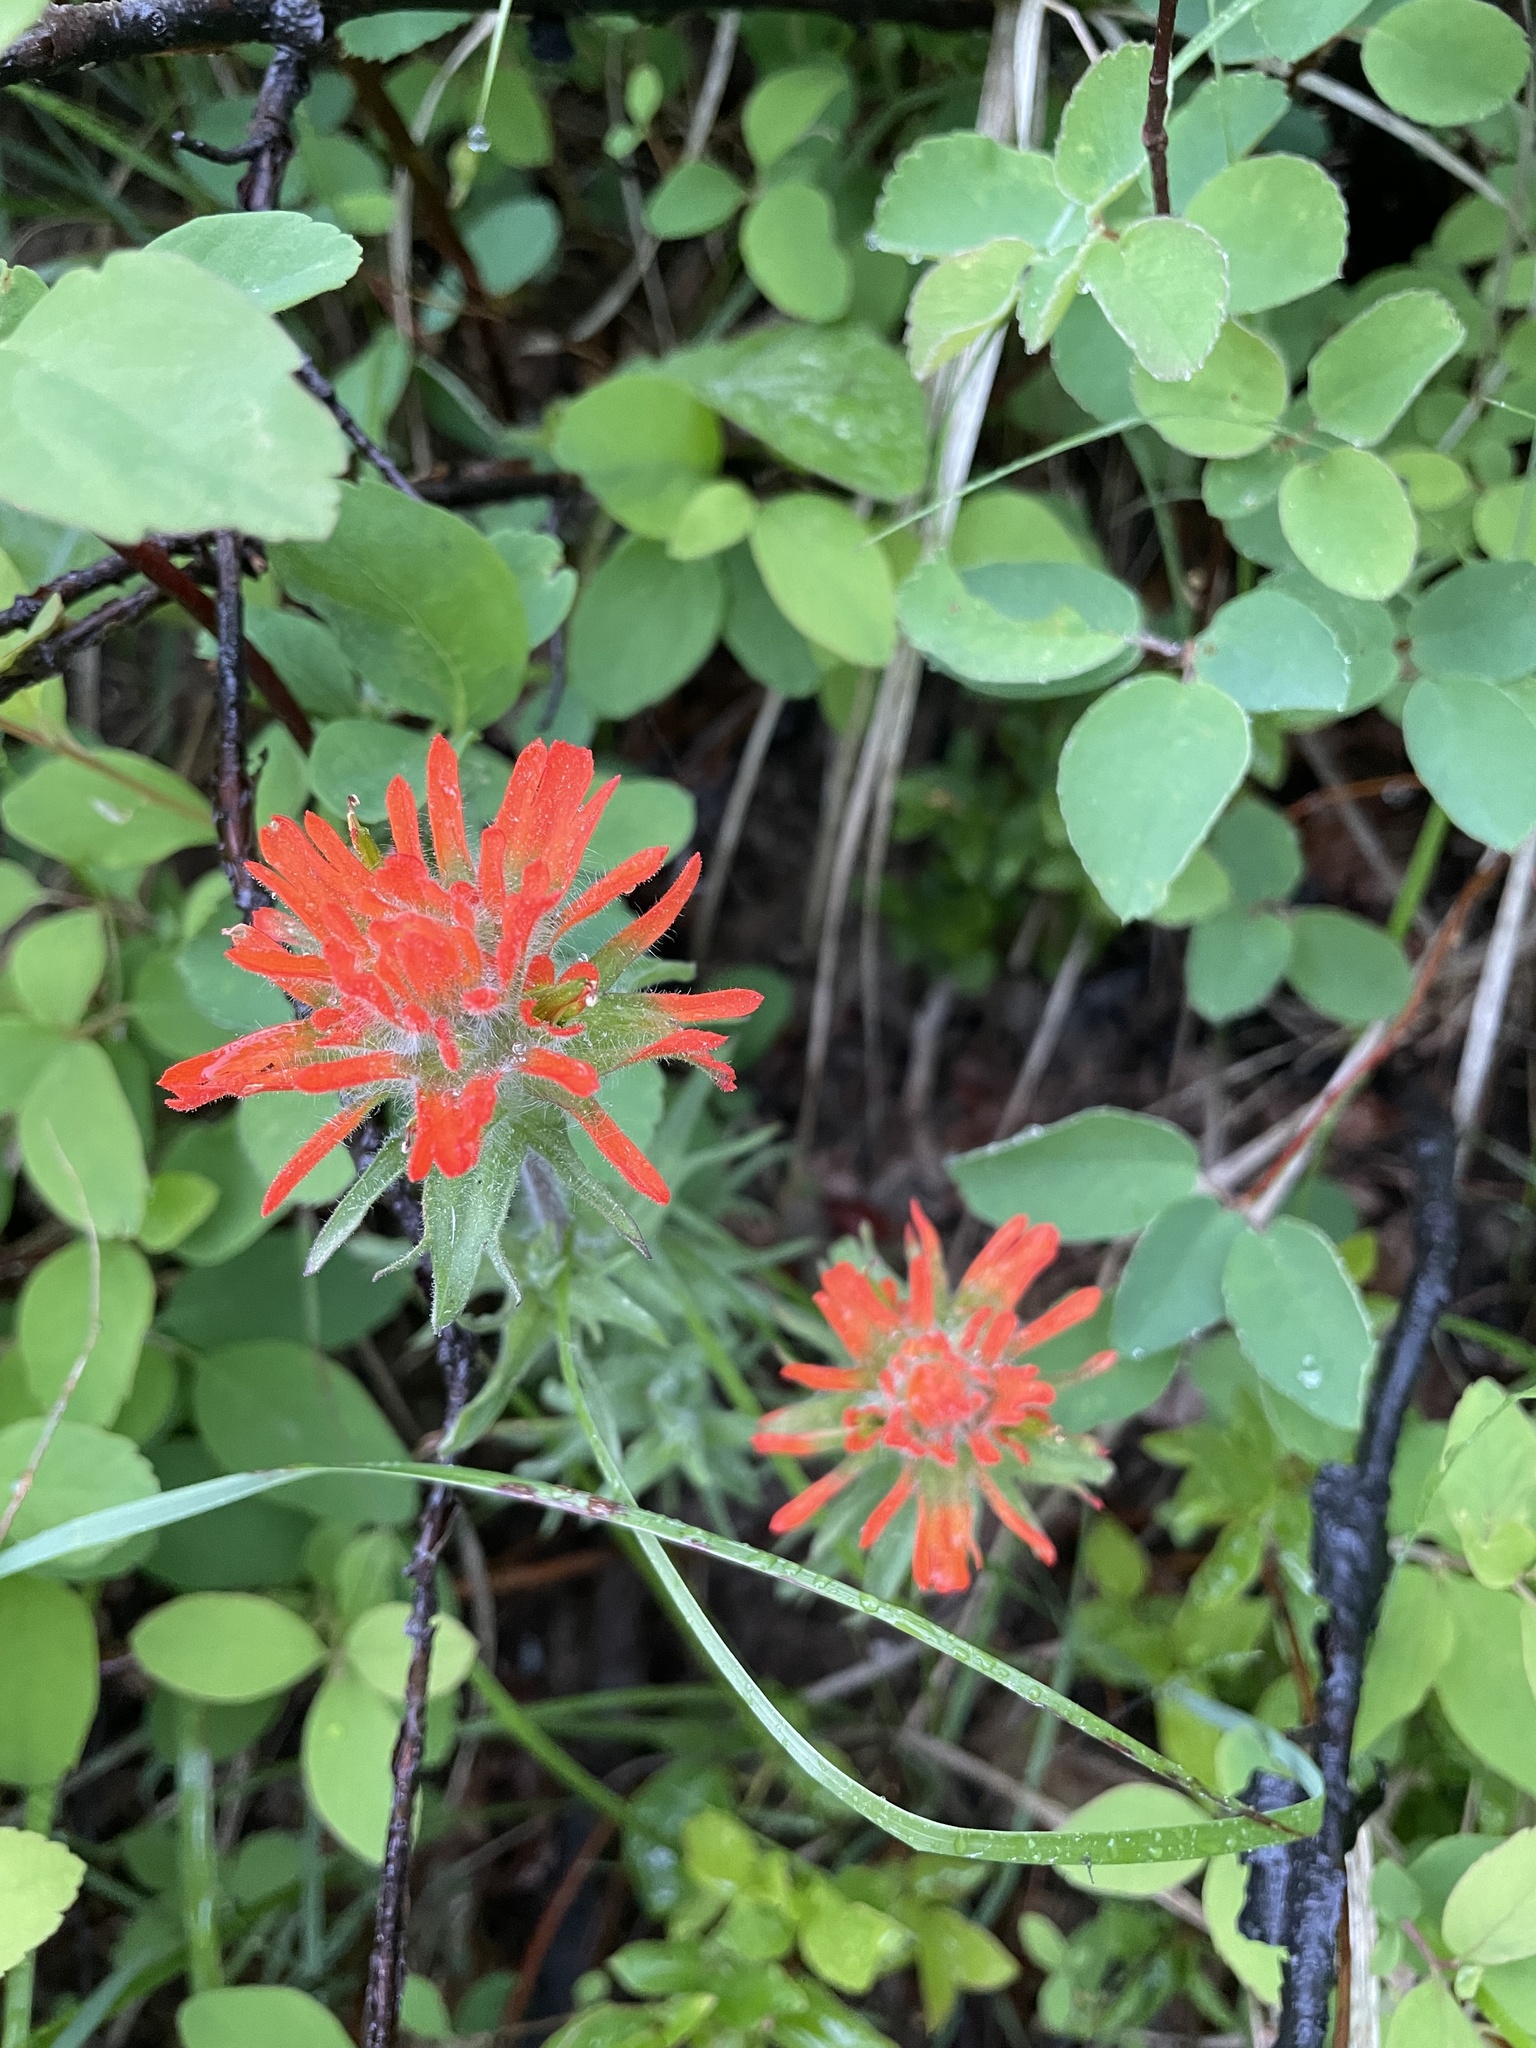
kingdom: Plantae
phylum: Tracheophyta
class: Magnoliopsida
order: Lamiales
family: Orobanchaceae
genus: Castilleja
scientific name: Castilleja hispida
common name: Bristly paintbrush
